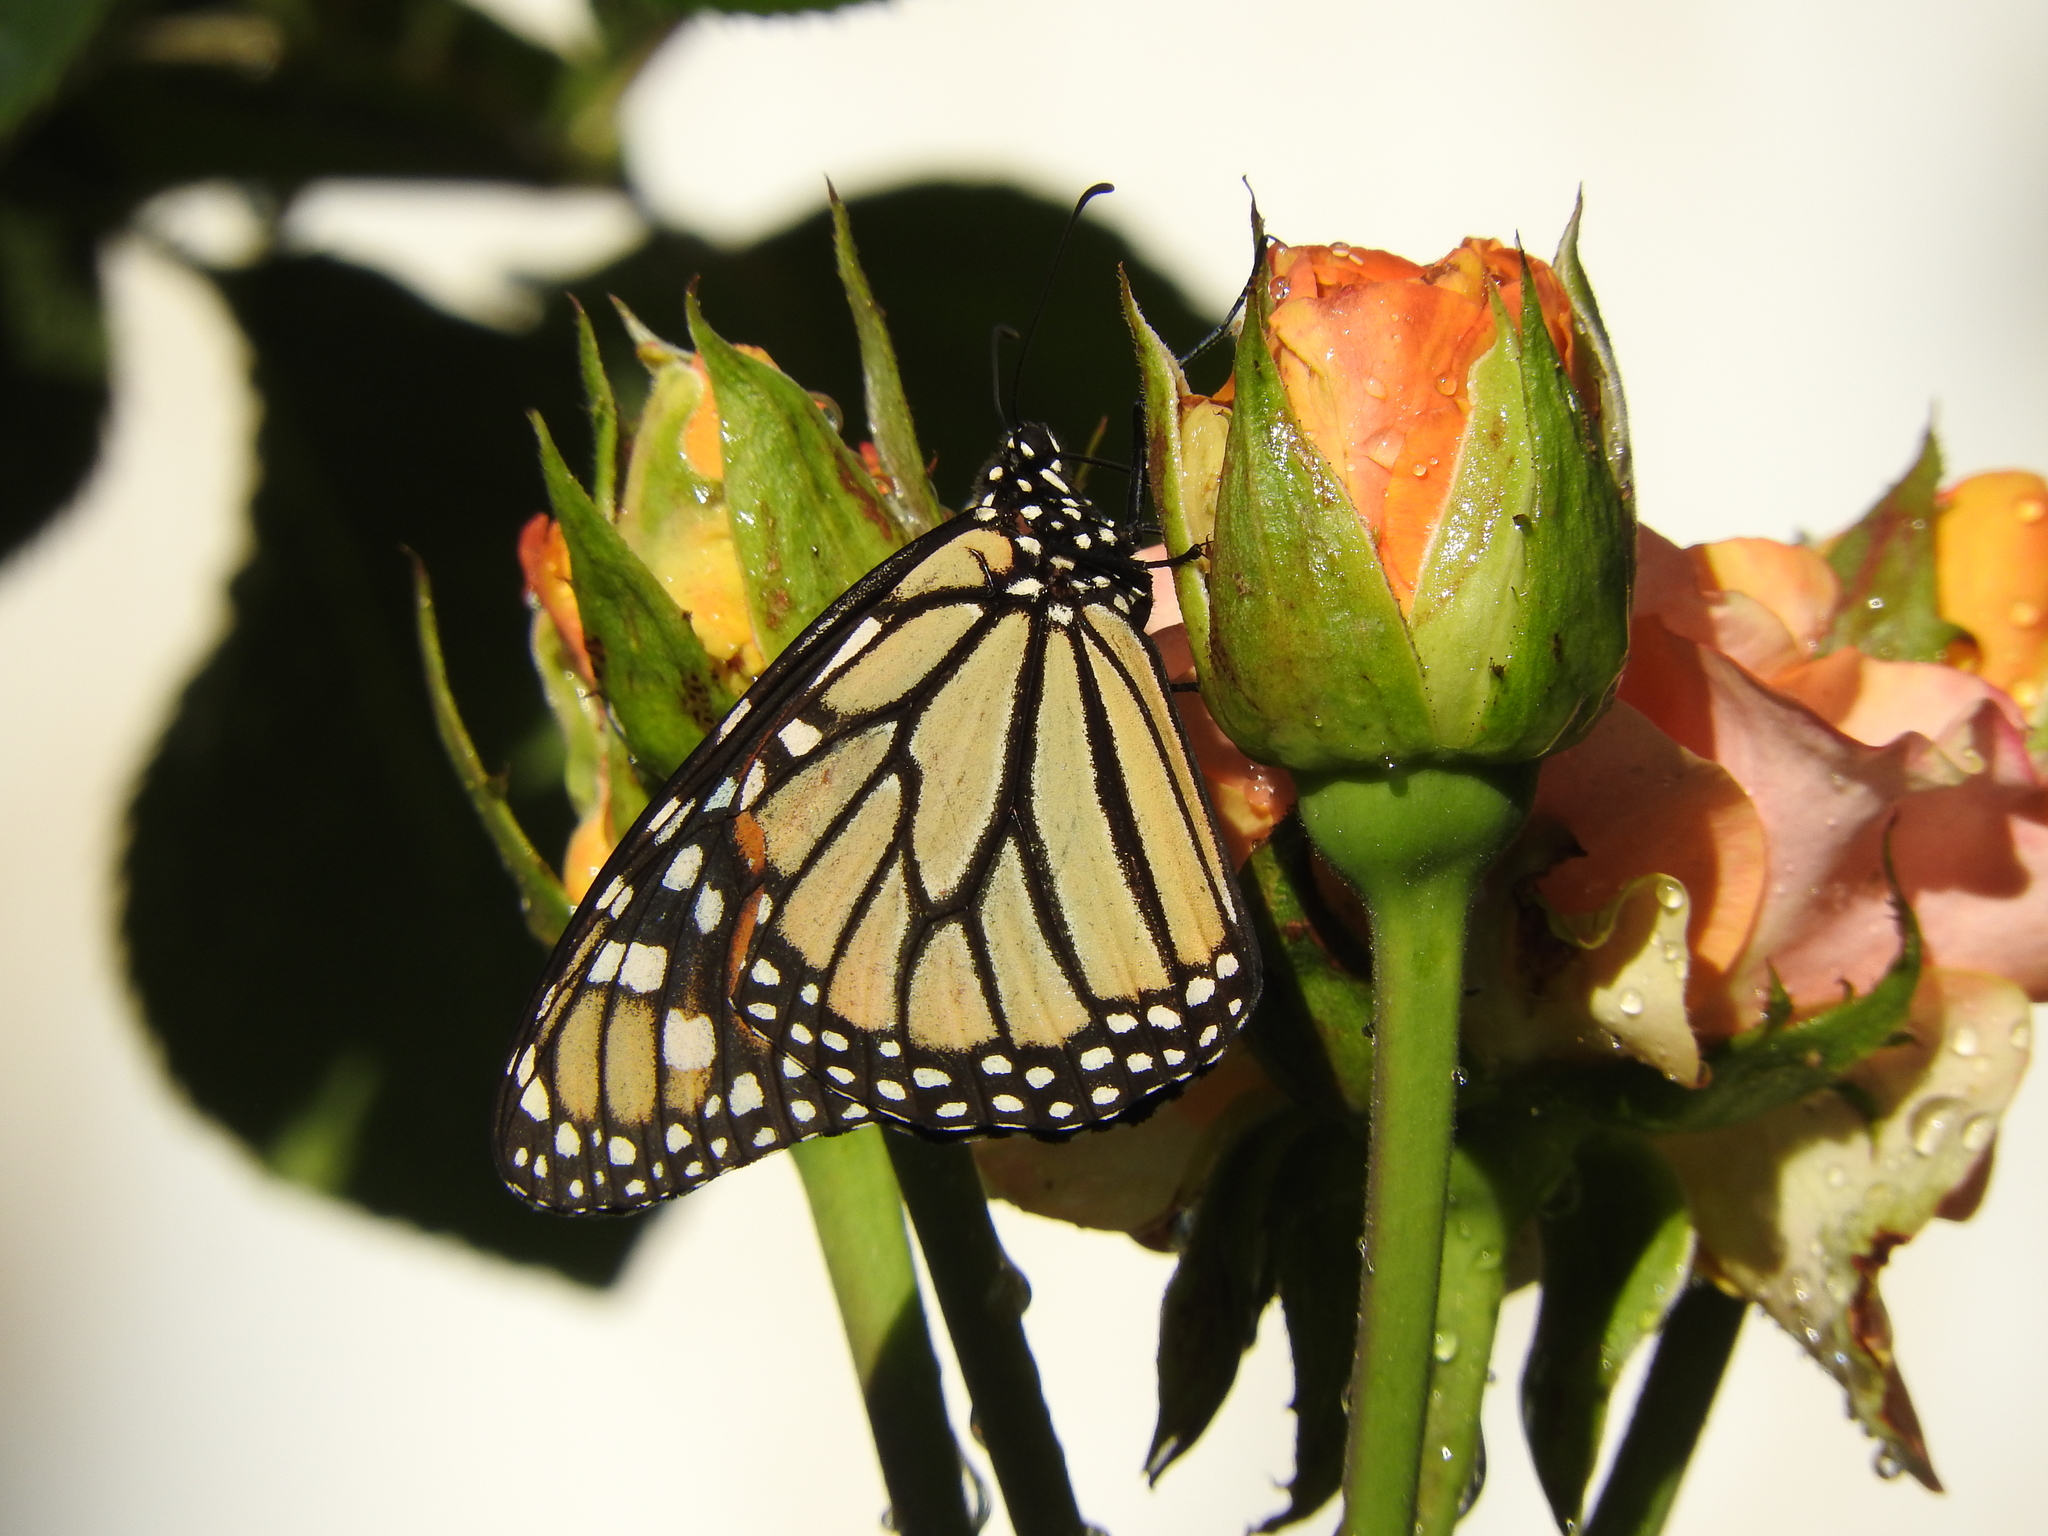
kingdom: Animalia
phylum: Arthropoda
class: Insecta
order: Lepidoptera
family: Nymphalidae
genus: Danaus
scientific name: Danaus plexippus
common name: Monarch
